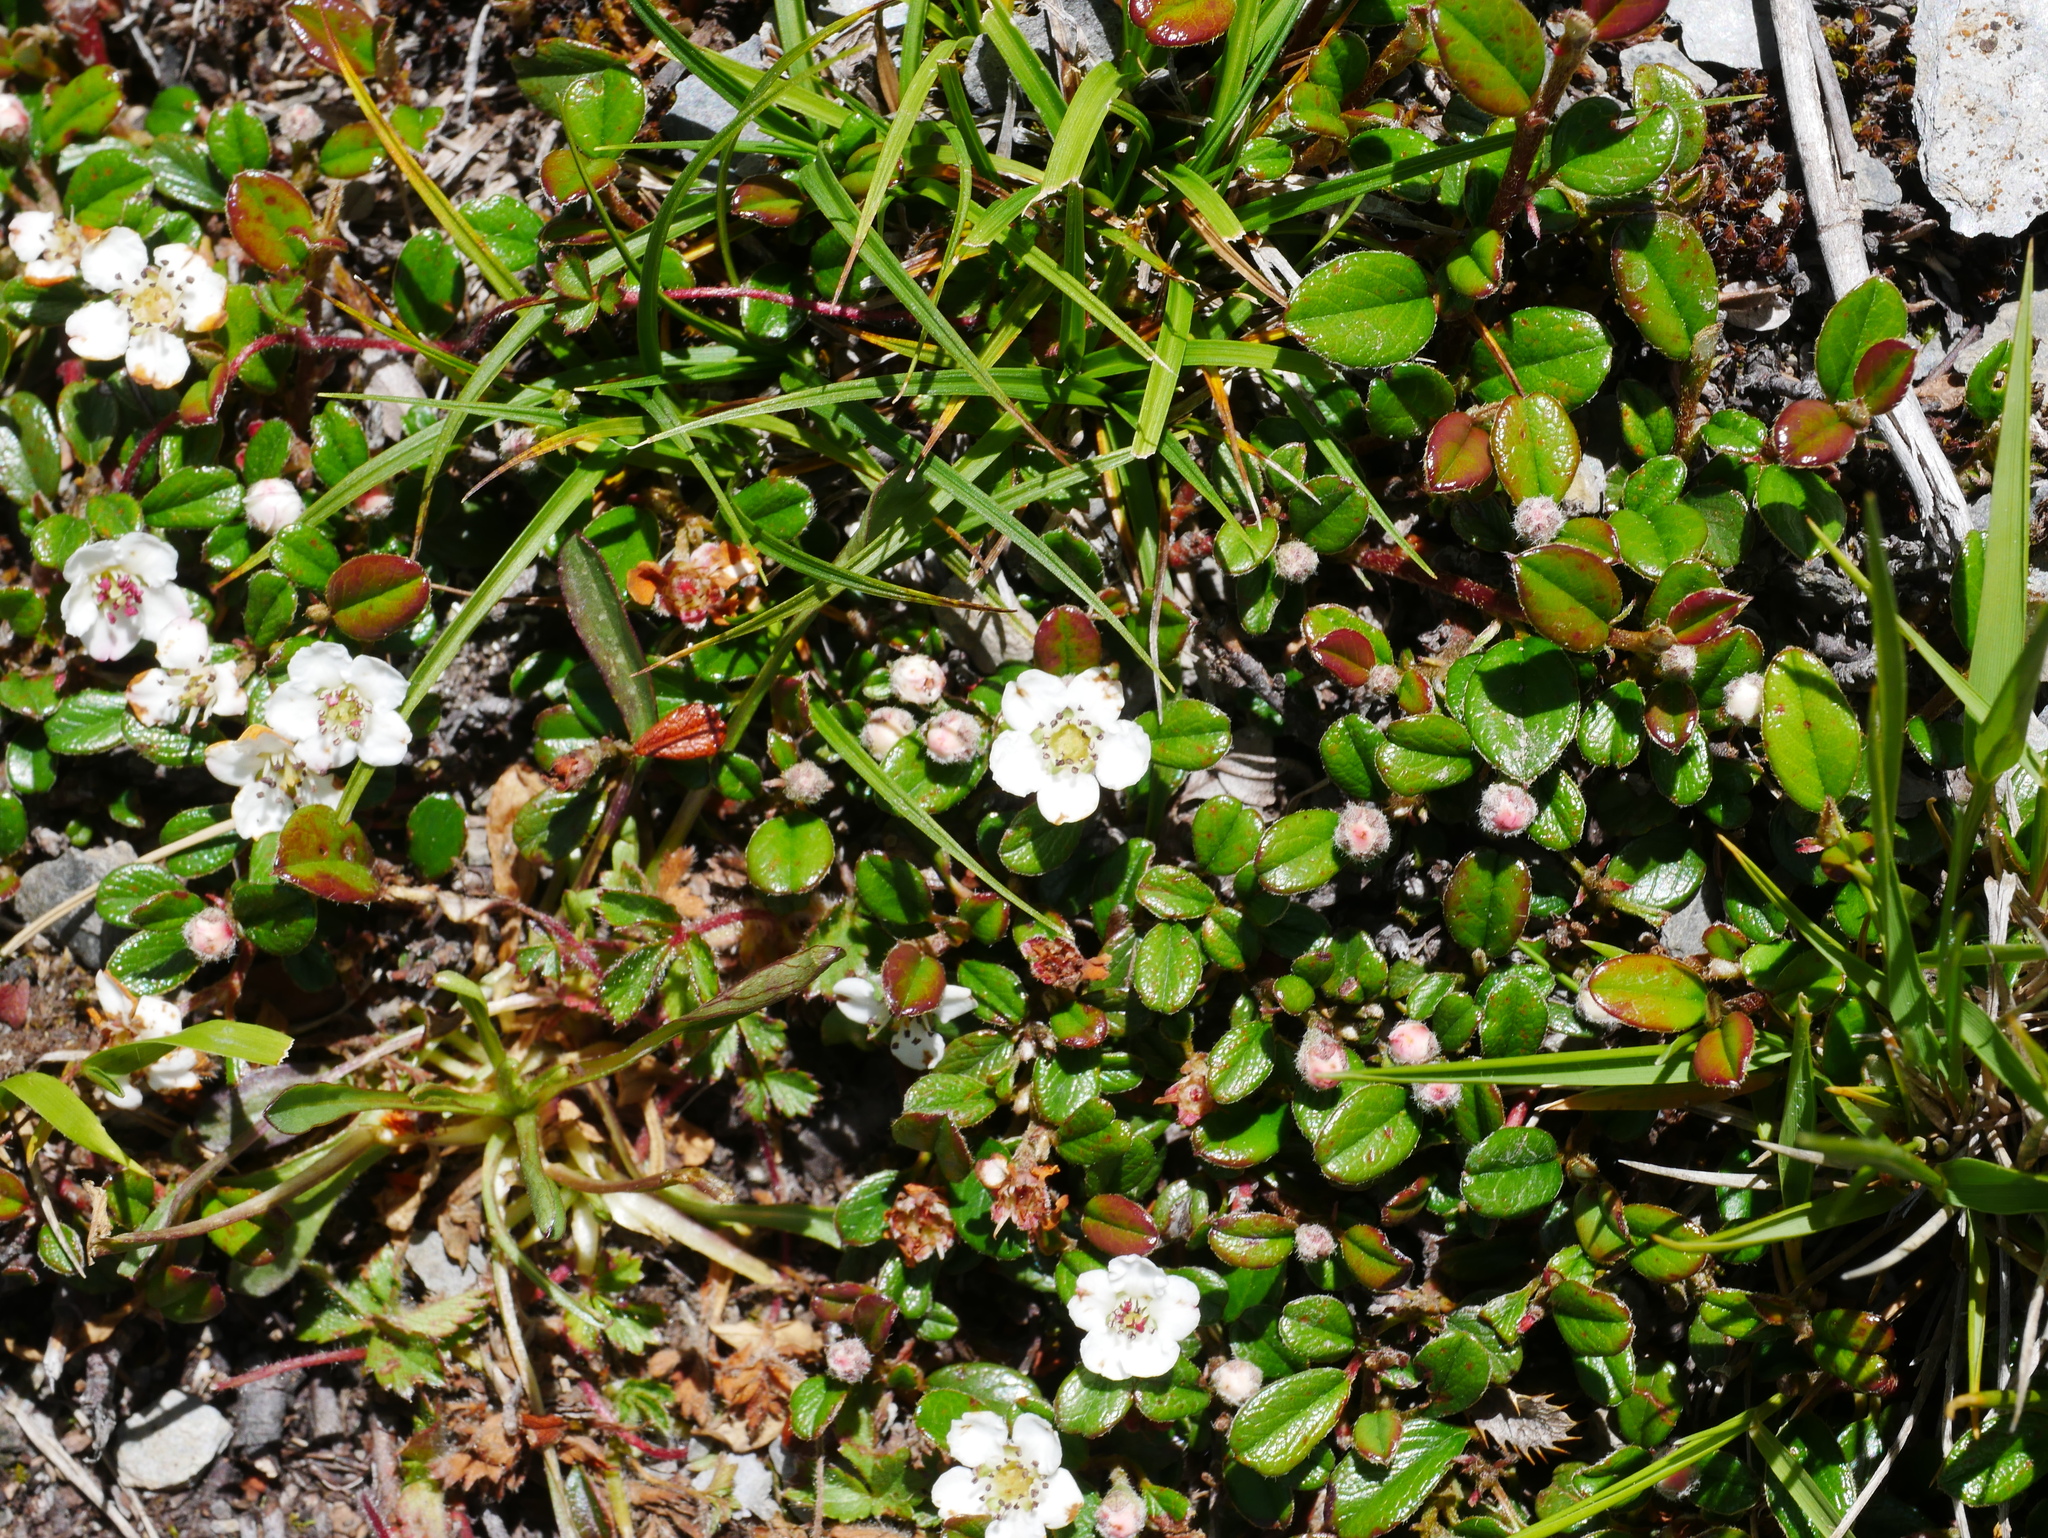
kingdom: Plantae
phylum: Tracheophyta
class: Magnoliopsida
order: Rosales
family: Rosaceae
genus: Cotoneaster
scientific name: Cotoneaster morrisonensis
